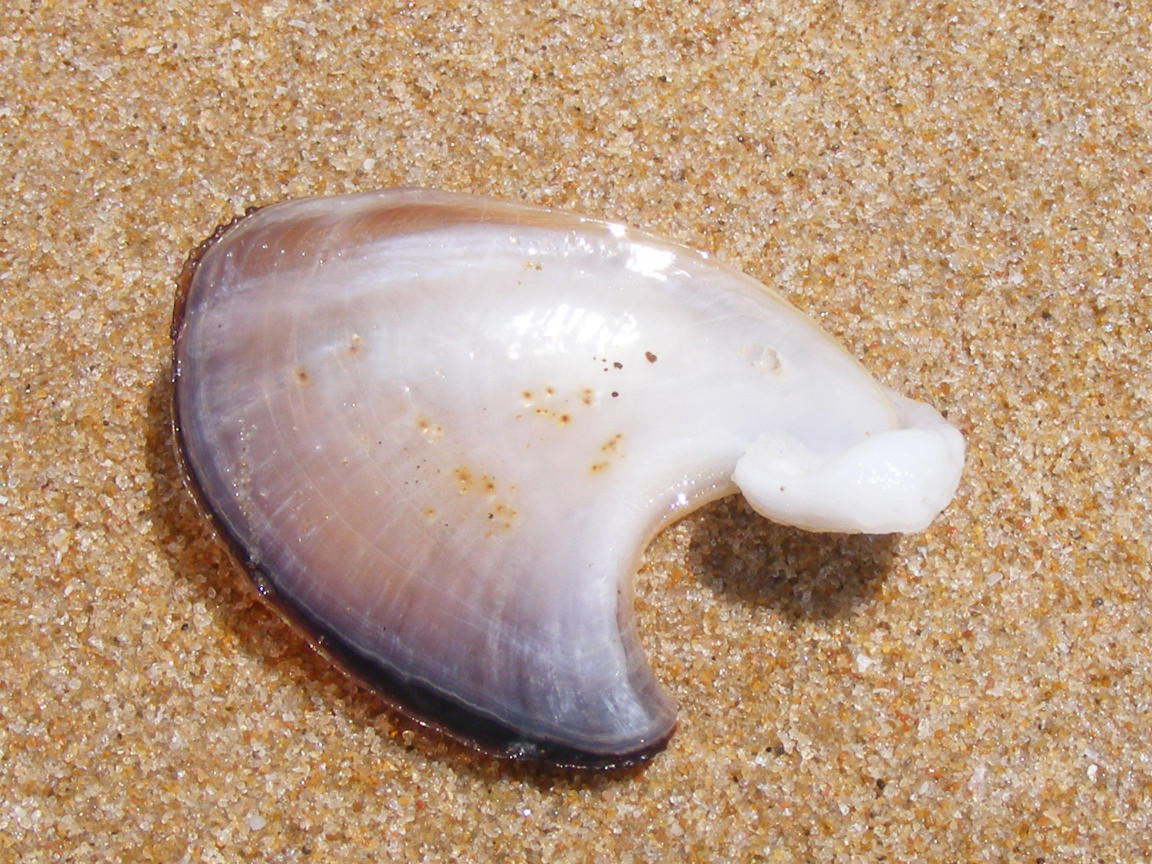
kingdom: Animalia
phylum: Mollusca
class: Gastropoda
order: Aplysiida
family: Aplysiidae
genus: Dolabella
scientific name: Dolabella auricularia
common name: Blunt-end seahare
